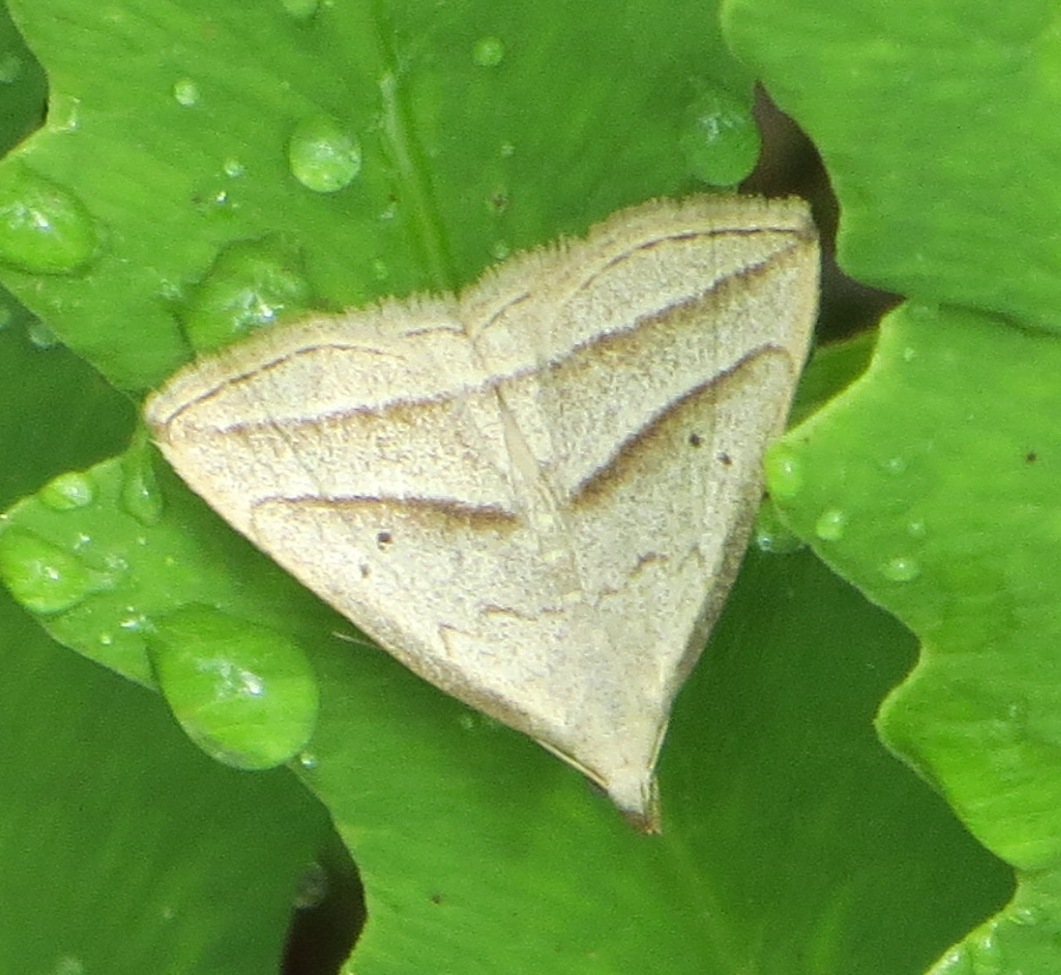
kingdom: Animalia
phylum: Arthropoda
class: Insecta
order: Lepidoptera
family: Erebidae
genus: Macrochilo
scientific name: Macrochilo absorptalis
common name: Slant-lined owlet
